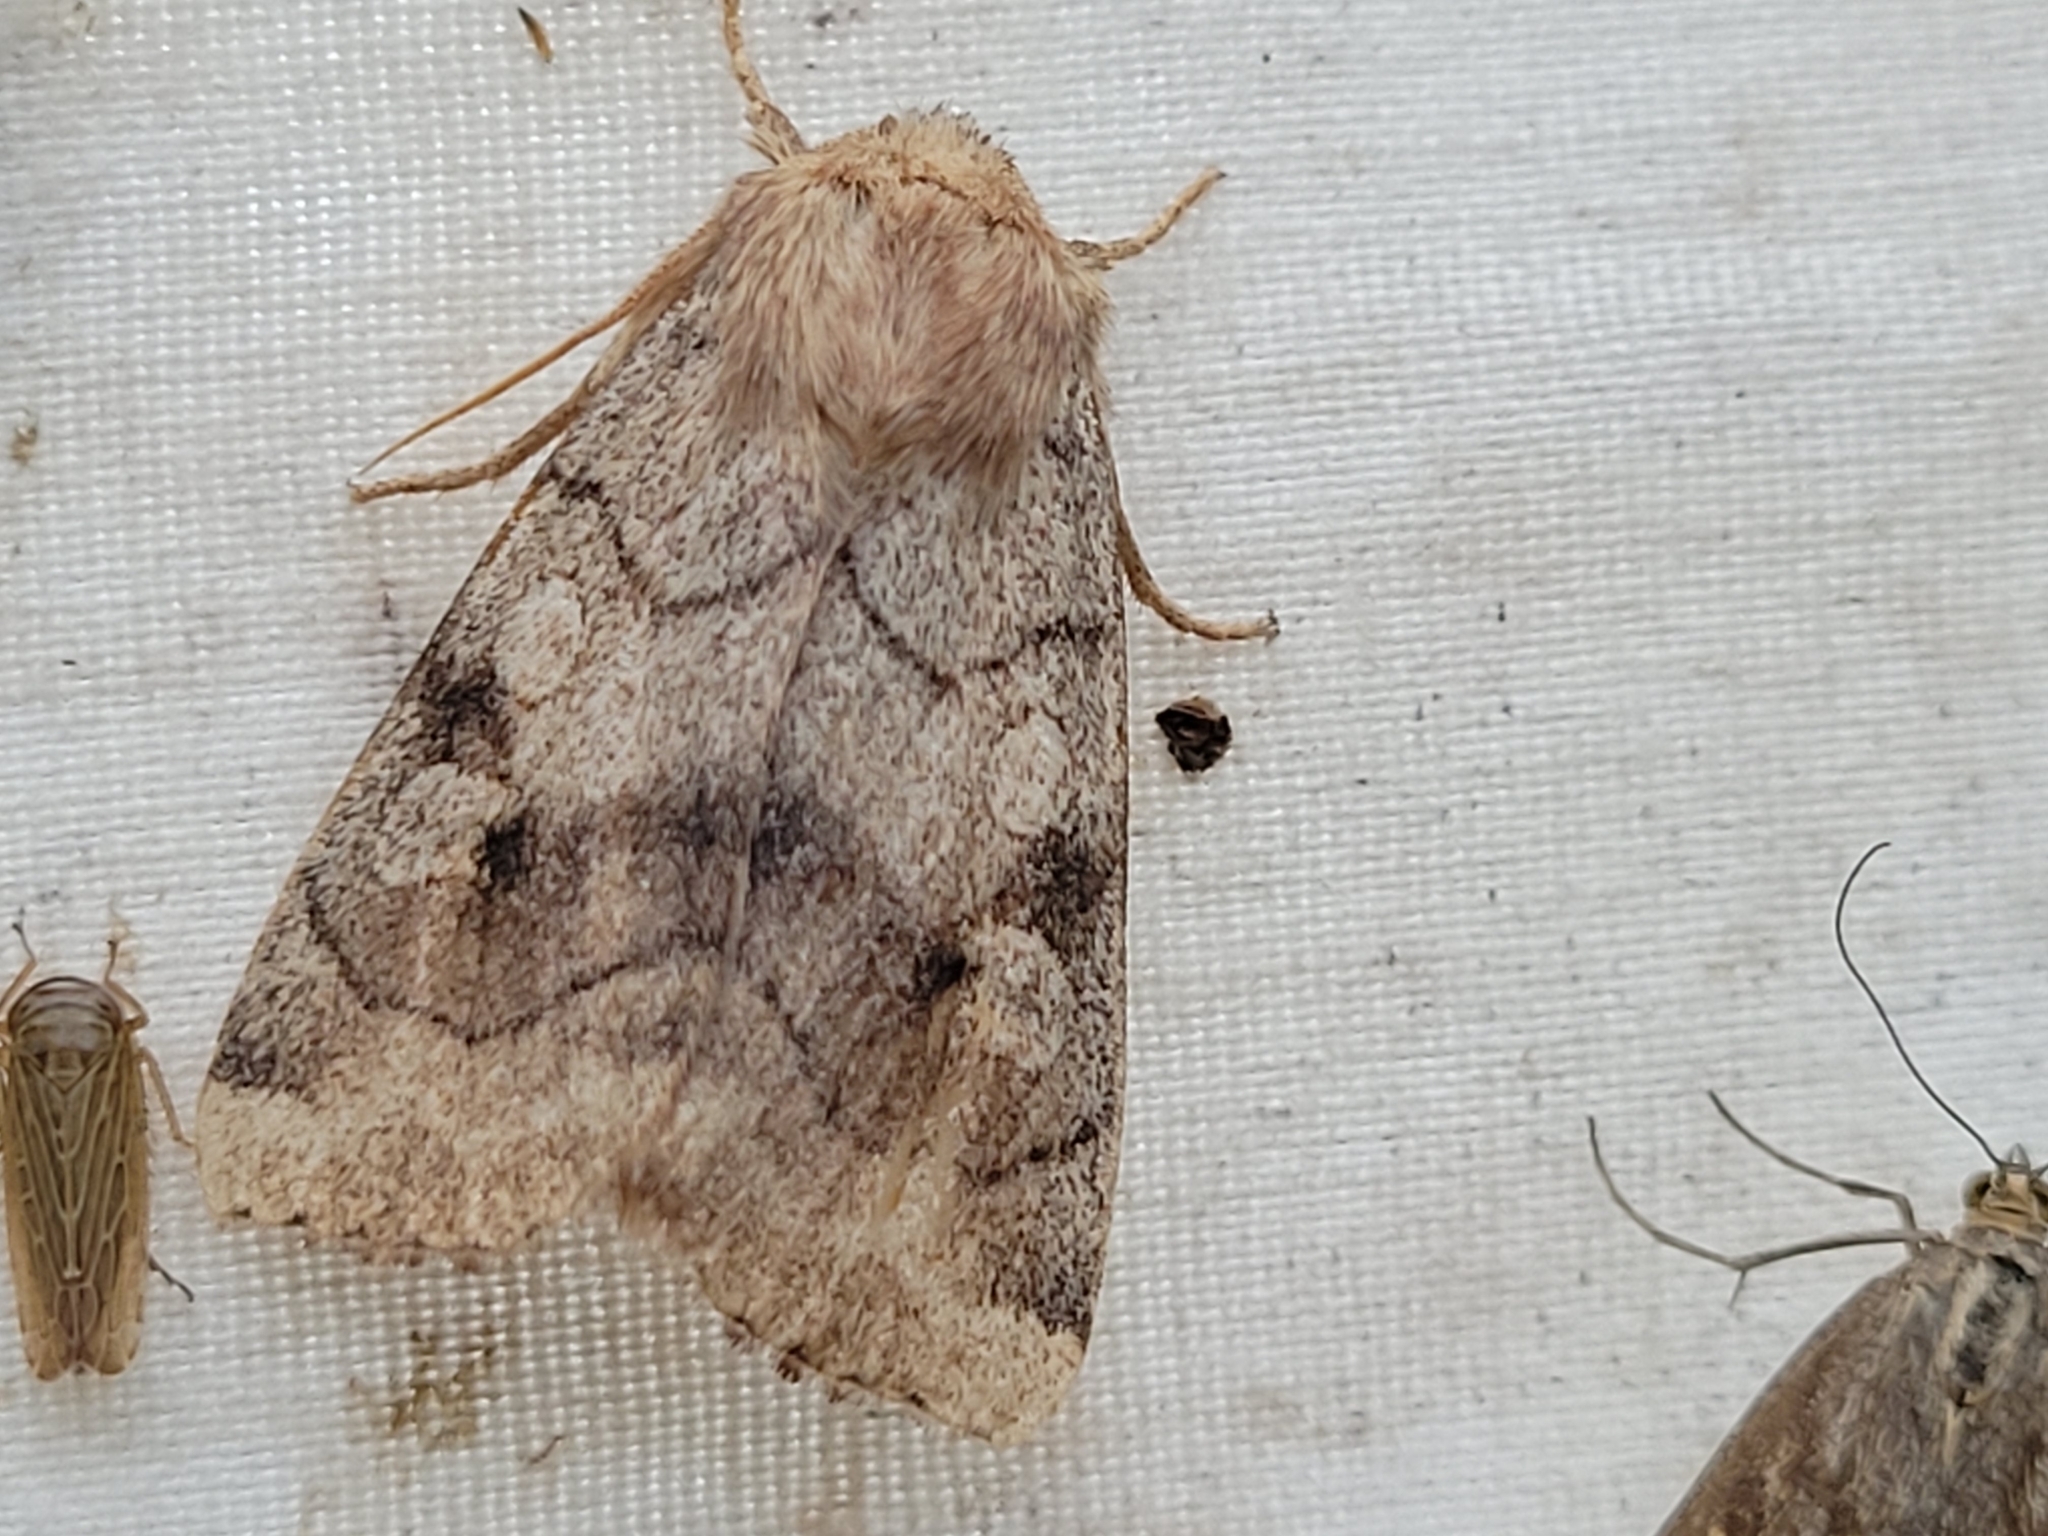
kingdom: Animalia
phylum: Arthropoda
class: Insecta
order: Lepidoptera
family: Noctuidae
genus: Enargia
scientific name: Enargia infumata
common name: Smoked sallow
